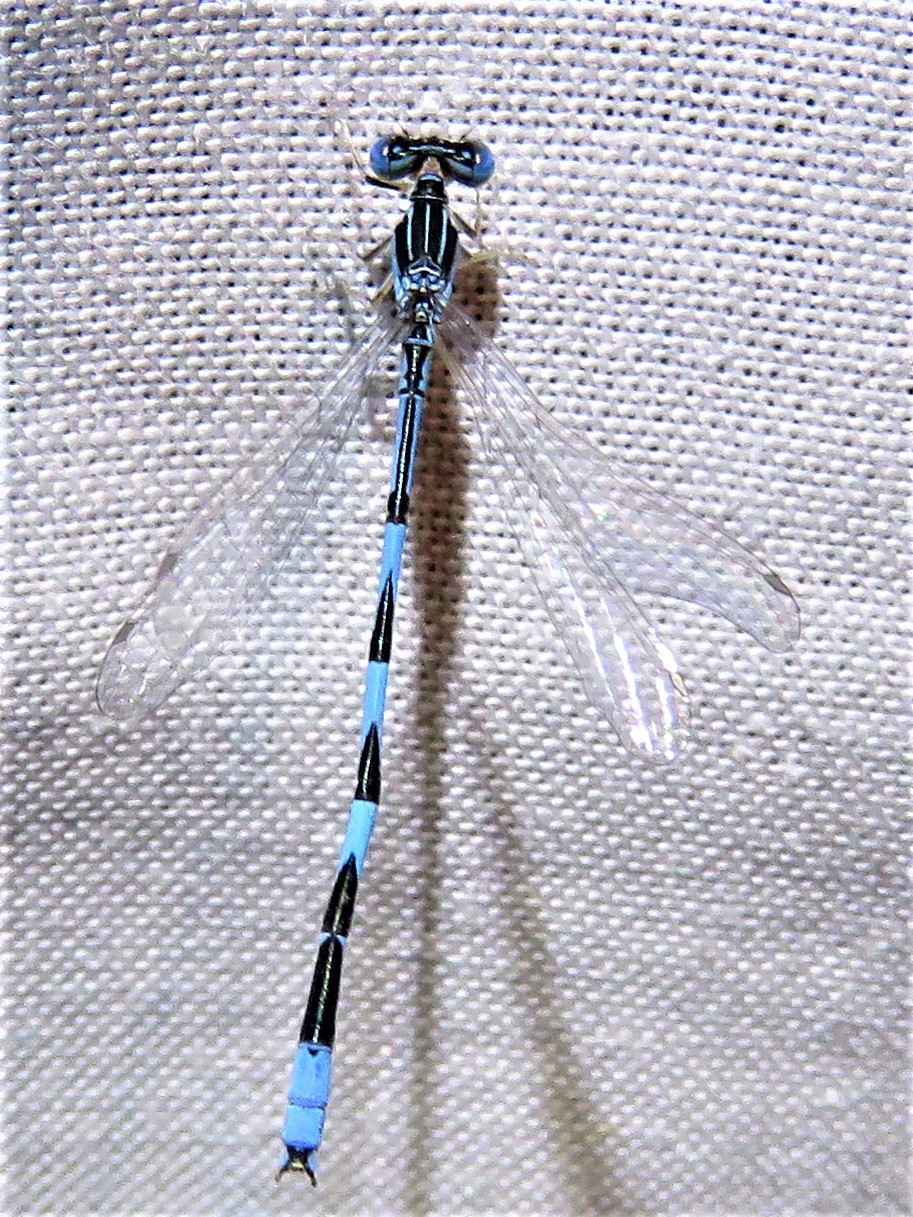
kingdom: Animalia
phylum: Arthropoda
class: Insecta
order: Odonata
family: Coenagrionidae
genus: Enallagma
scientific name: Enallagma basidens
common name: Double-striped bluet
